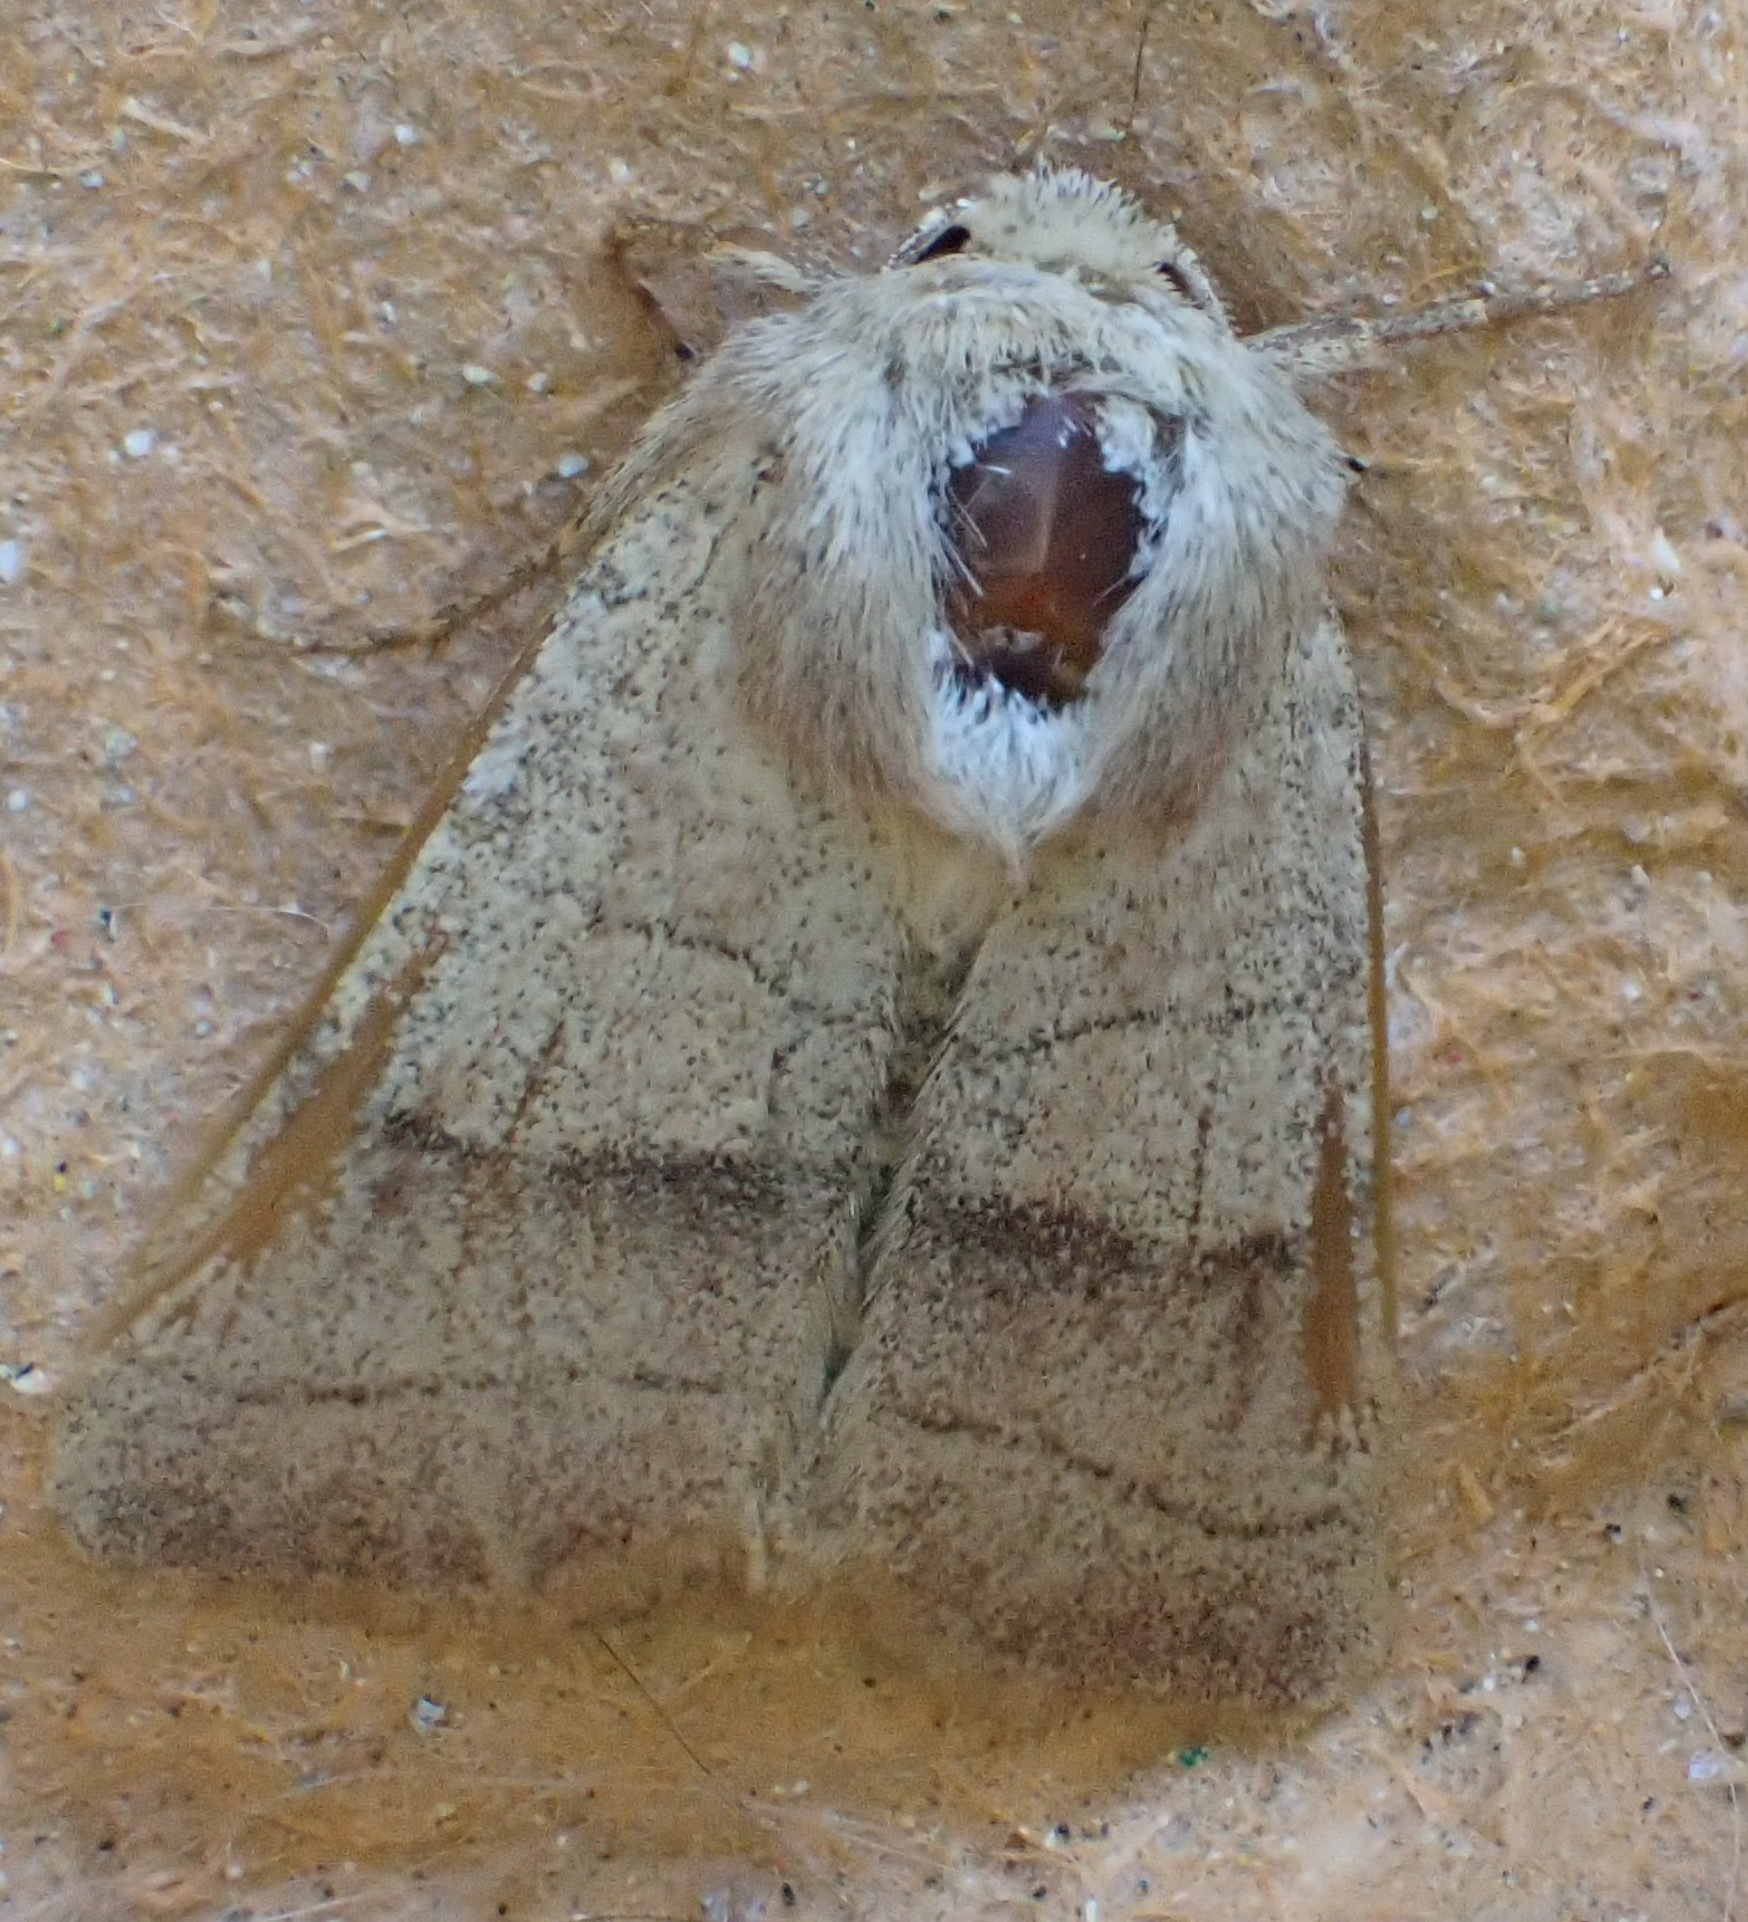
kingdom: Animalia
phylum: Arthropoda
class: Insecta
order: Lepidoptera
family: Noctuidae
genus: Charanyca
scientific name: Charanyca trigrammica
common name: Treble lines
